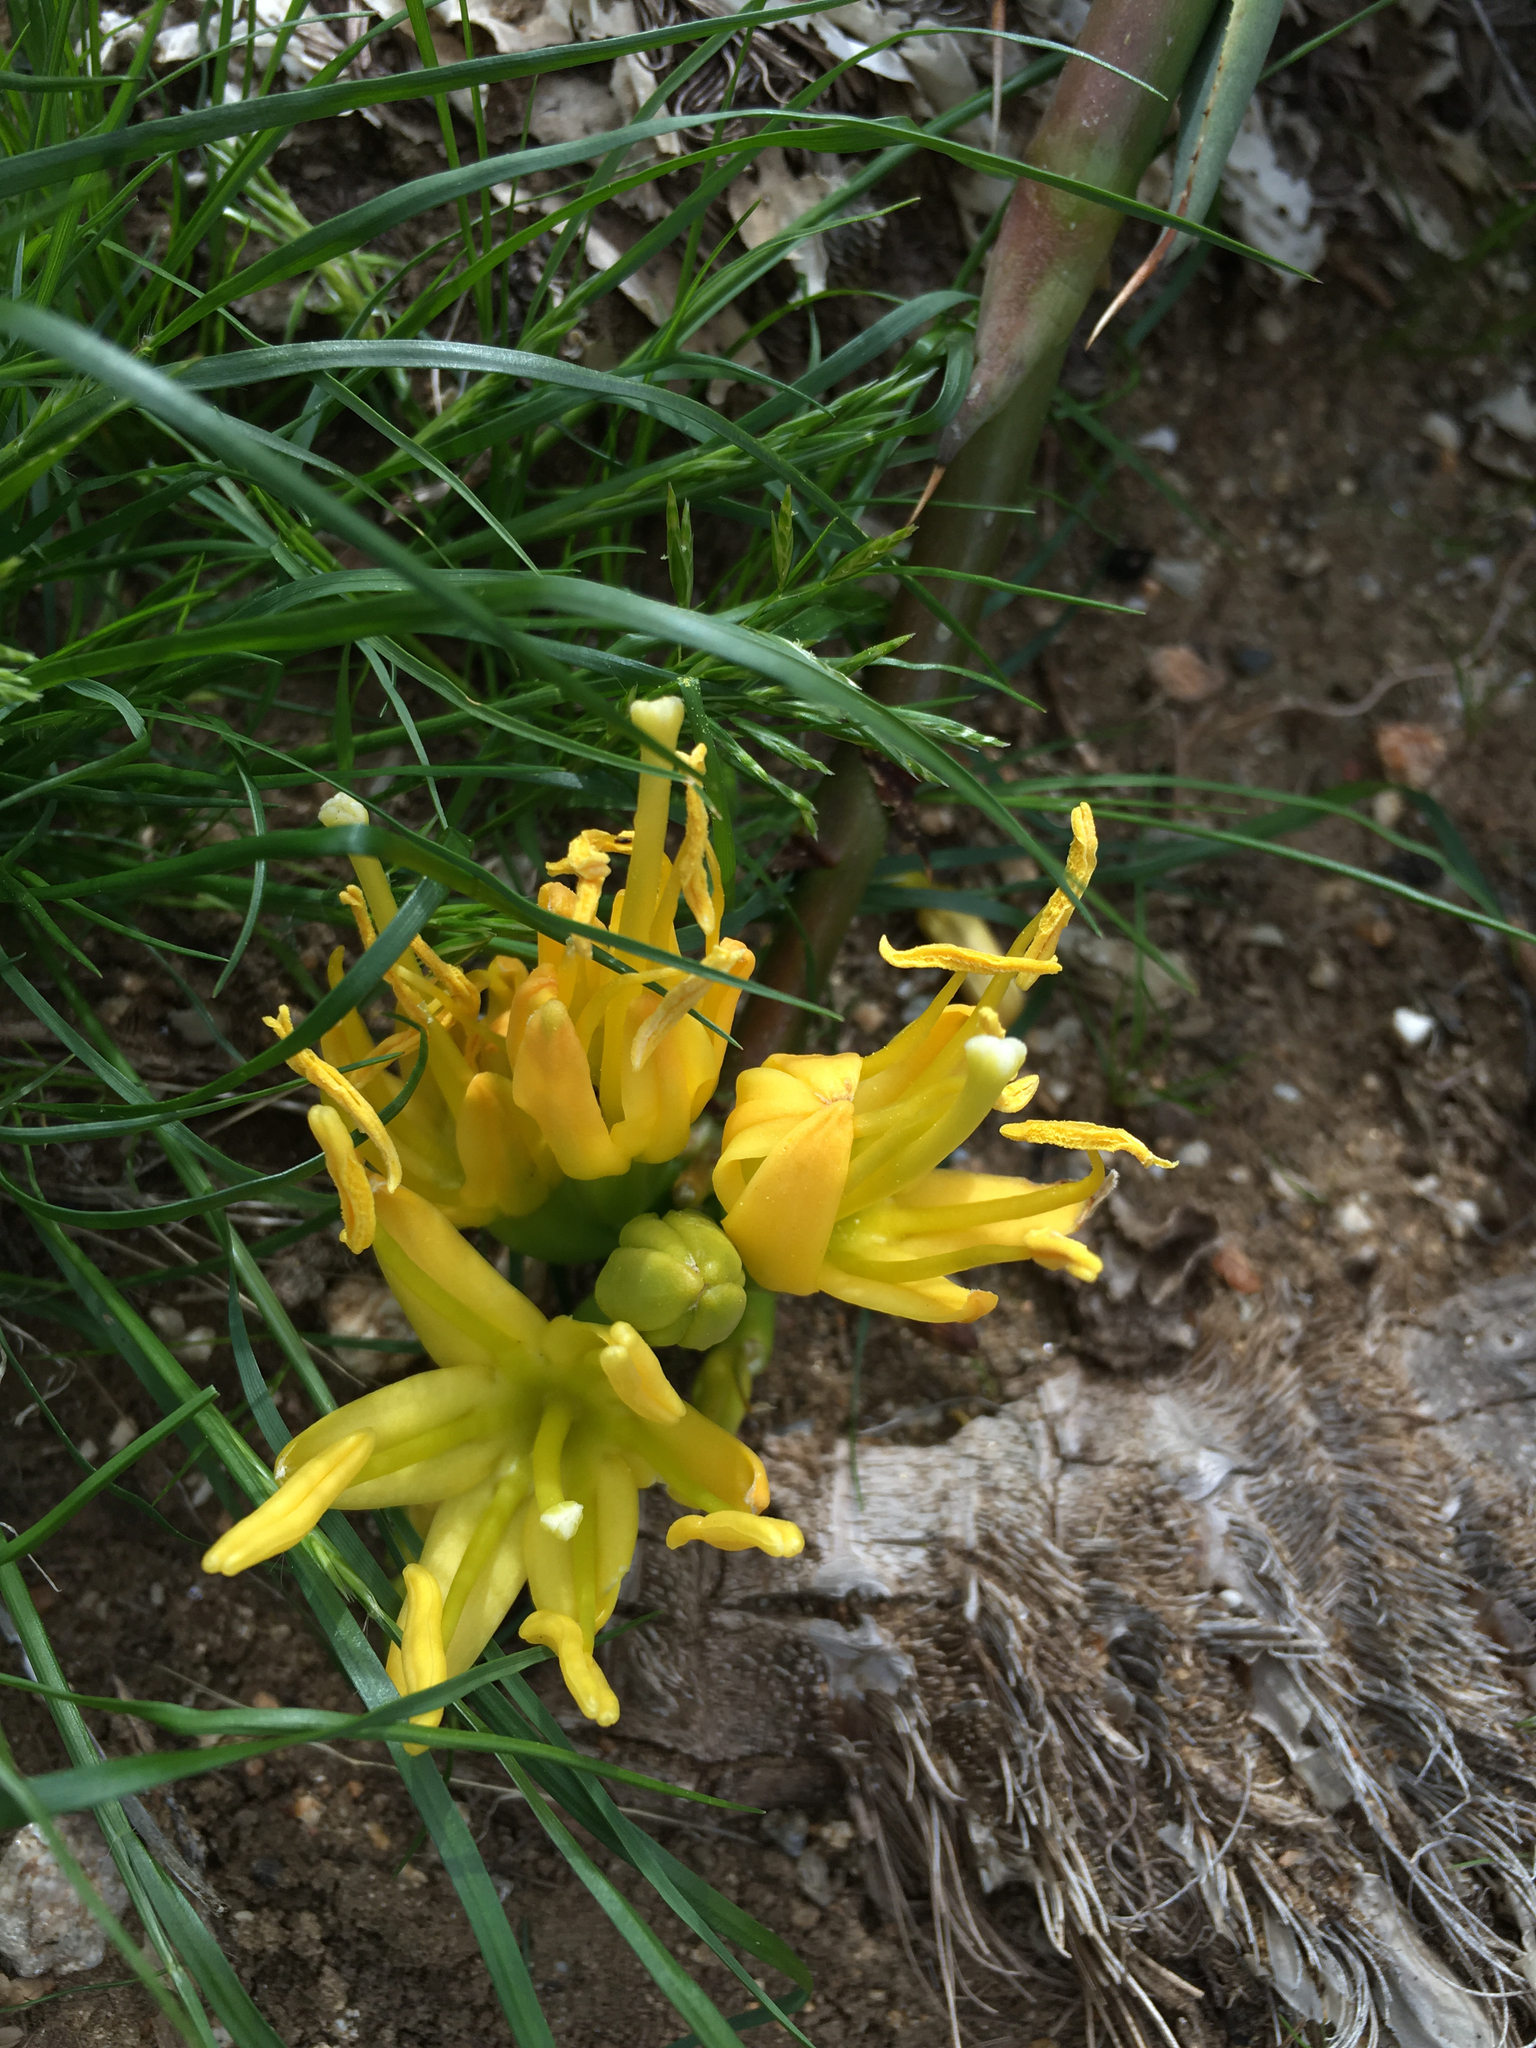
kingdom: Plantae
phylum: Tracheophyta
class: Liliopsida
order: Asparagales
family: Asparagaceae
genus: Agave
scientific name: Agave deserti
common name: Desert agave
